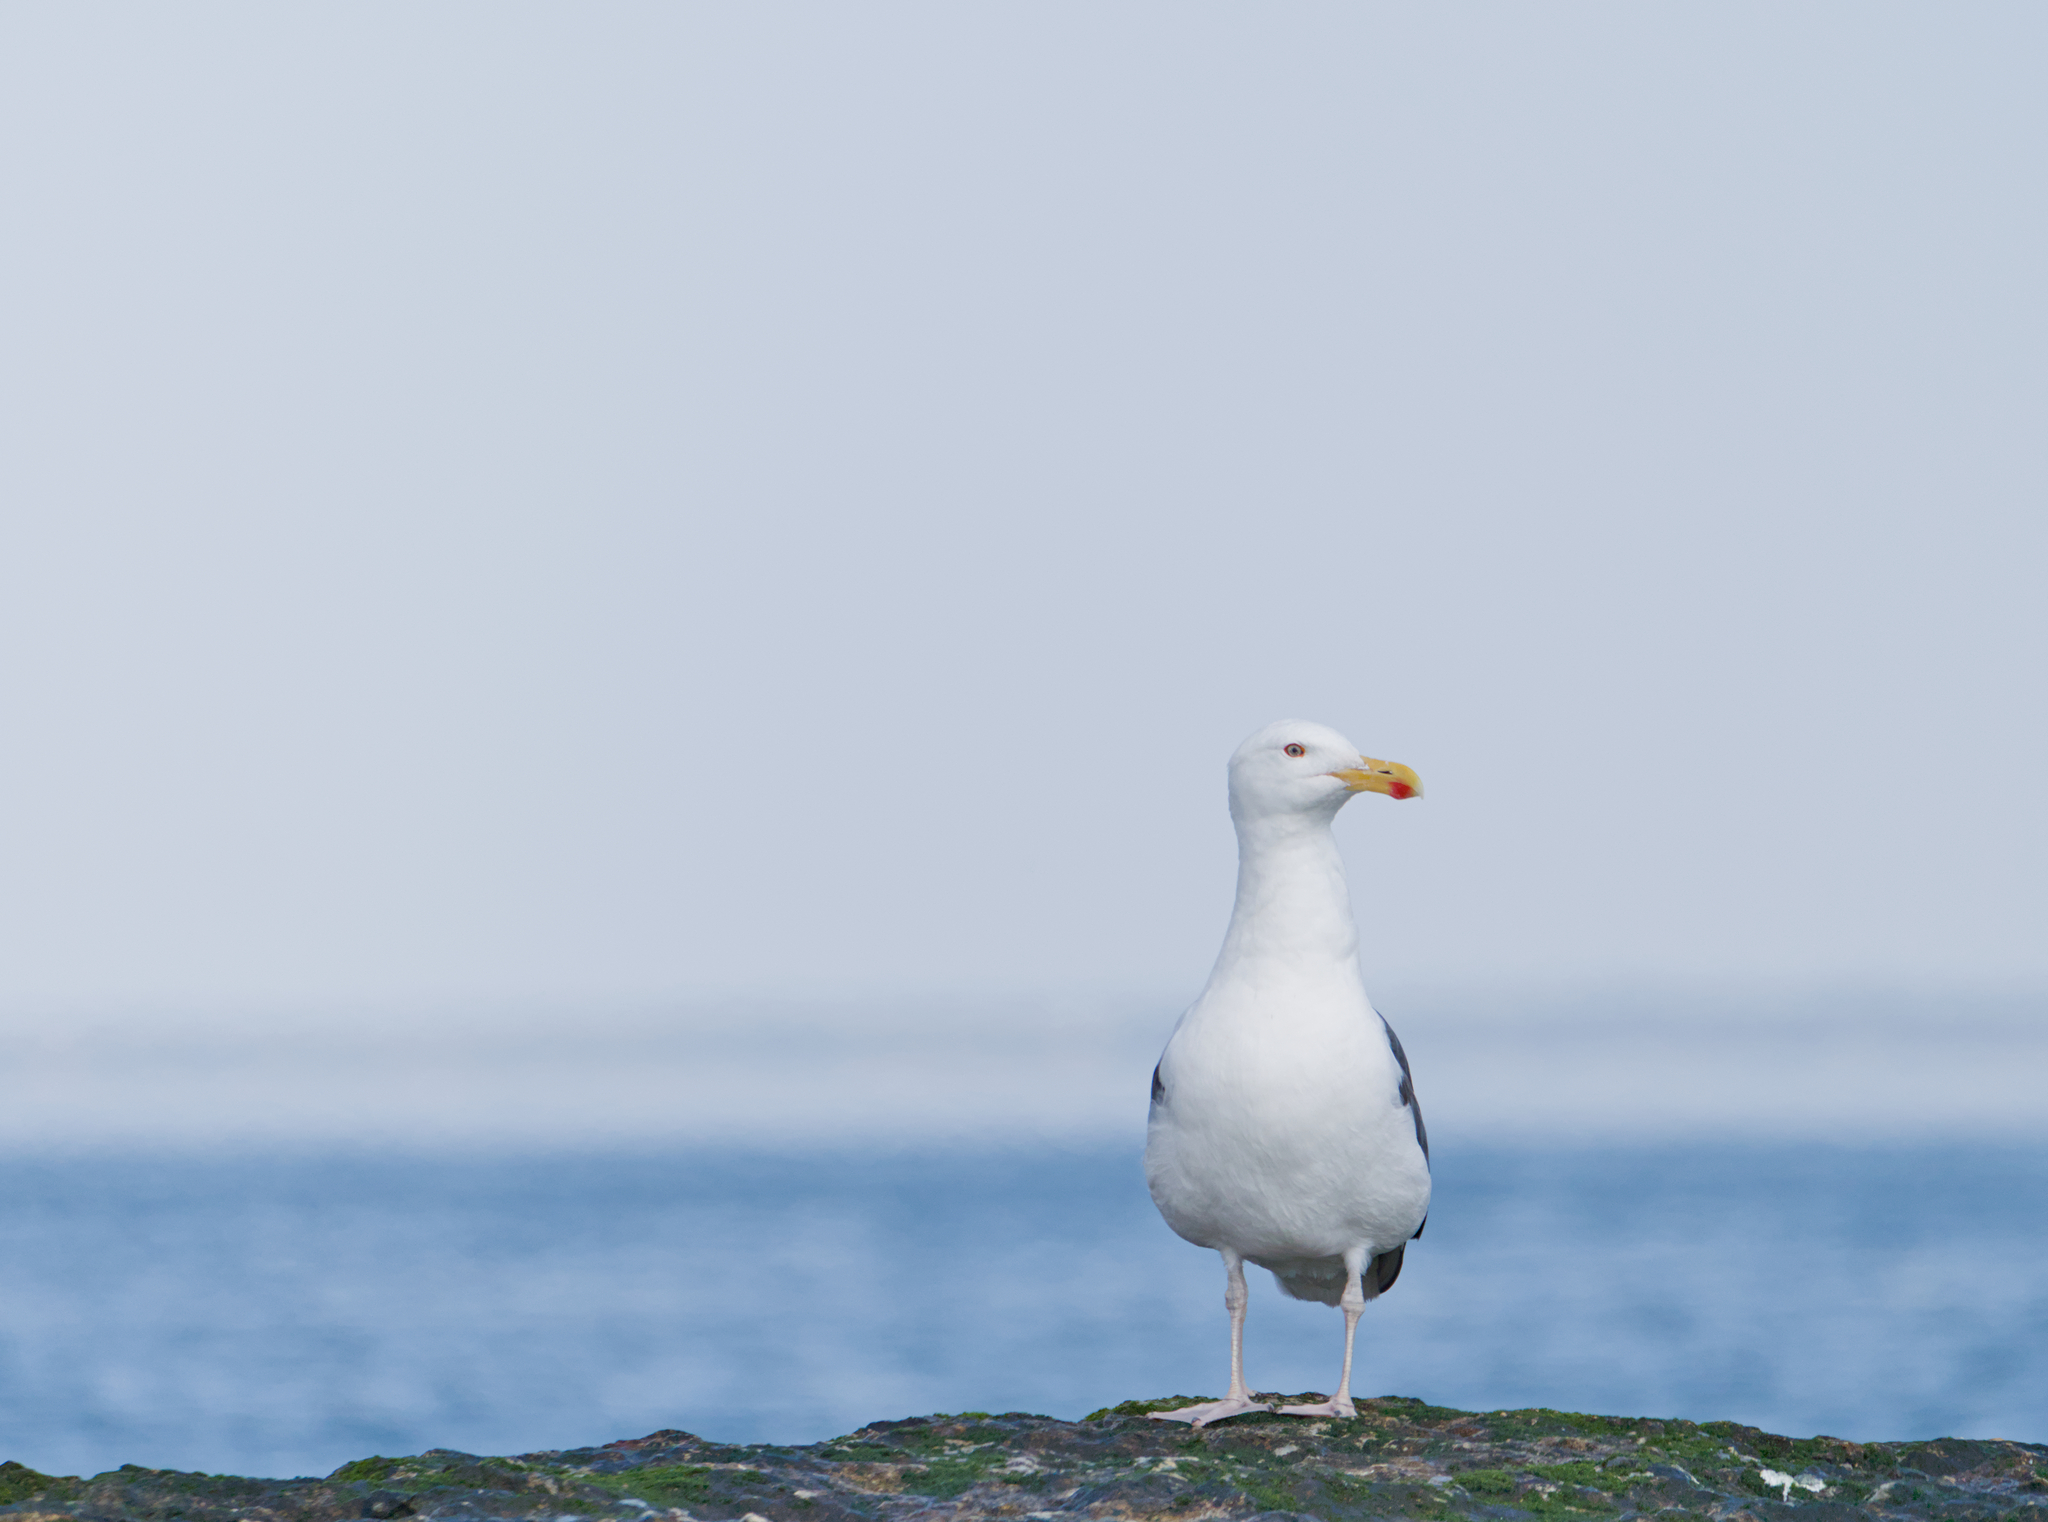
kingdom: Animalia
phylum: Chordata
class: Aves
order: Charadriiformes
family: Laridae
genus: Larus
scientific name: Larus marinus
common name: Great black-backed gull
